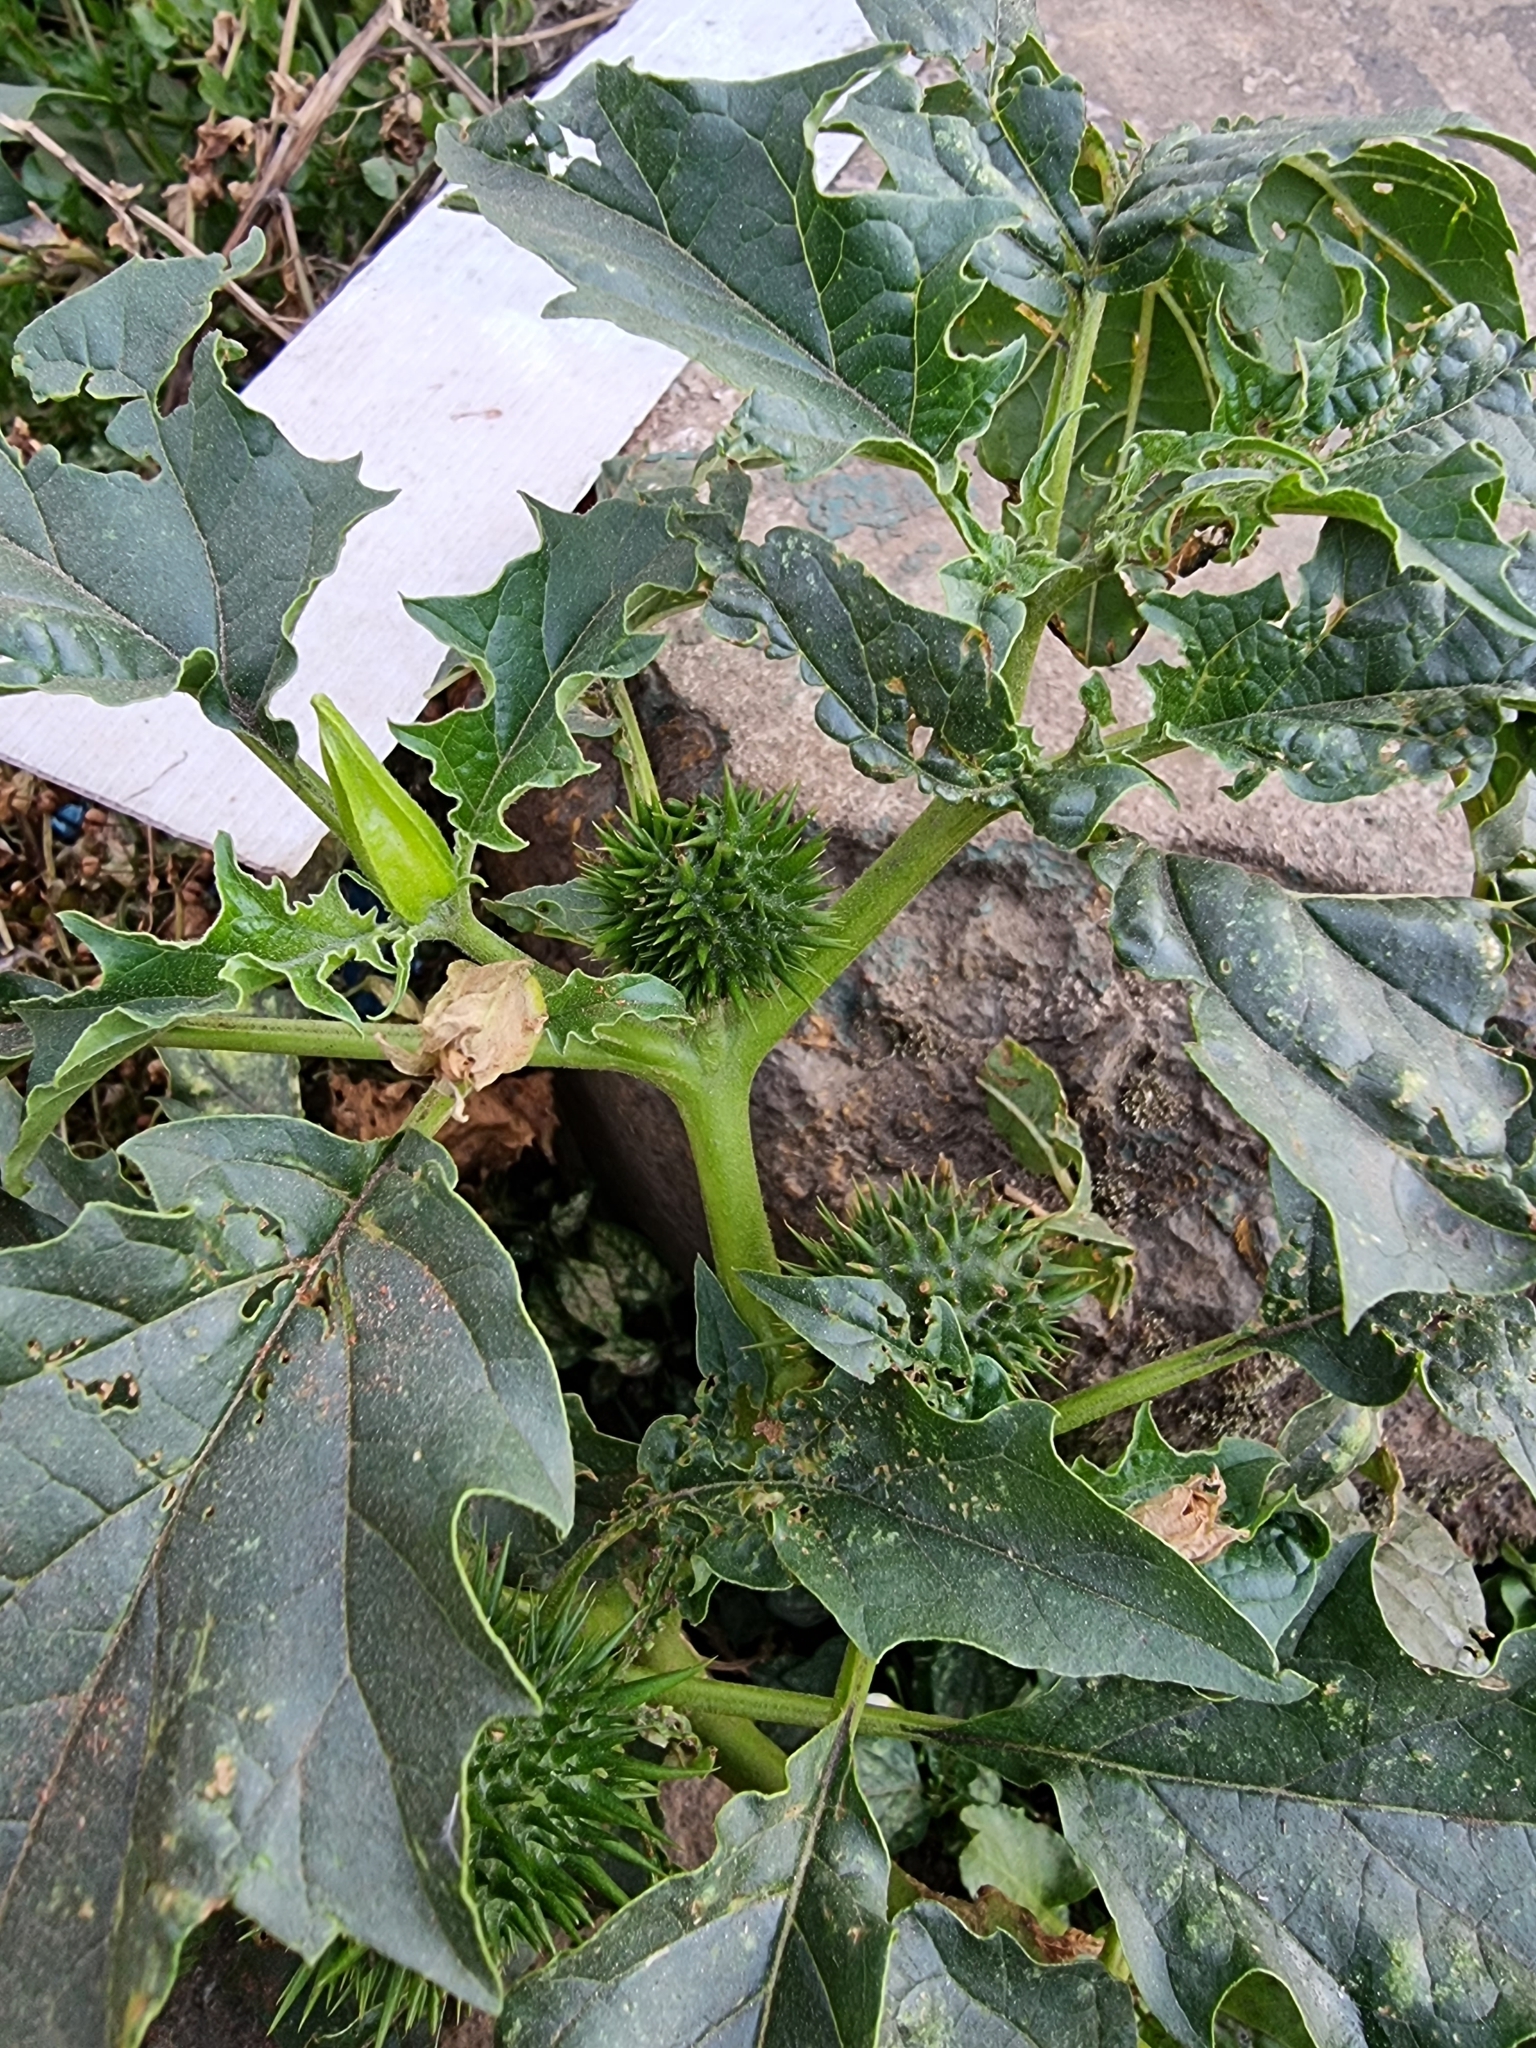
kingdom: Plantae
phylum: Tracheophyta
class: Magnoliopsida
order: Solanales
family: Solanaceae
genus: Datura
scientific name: Datura stramonium
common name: Thorn-apple
